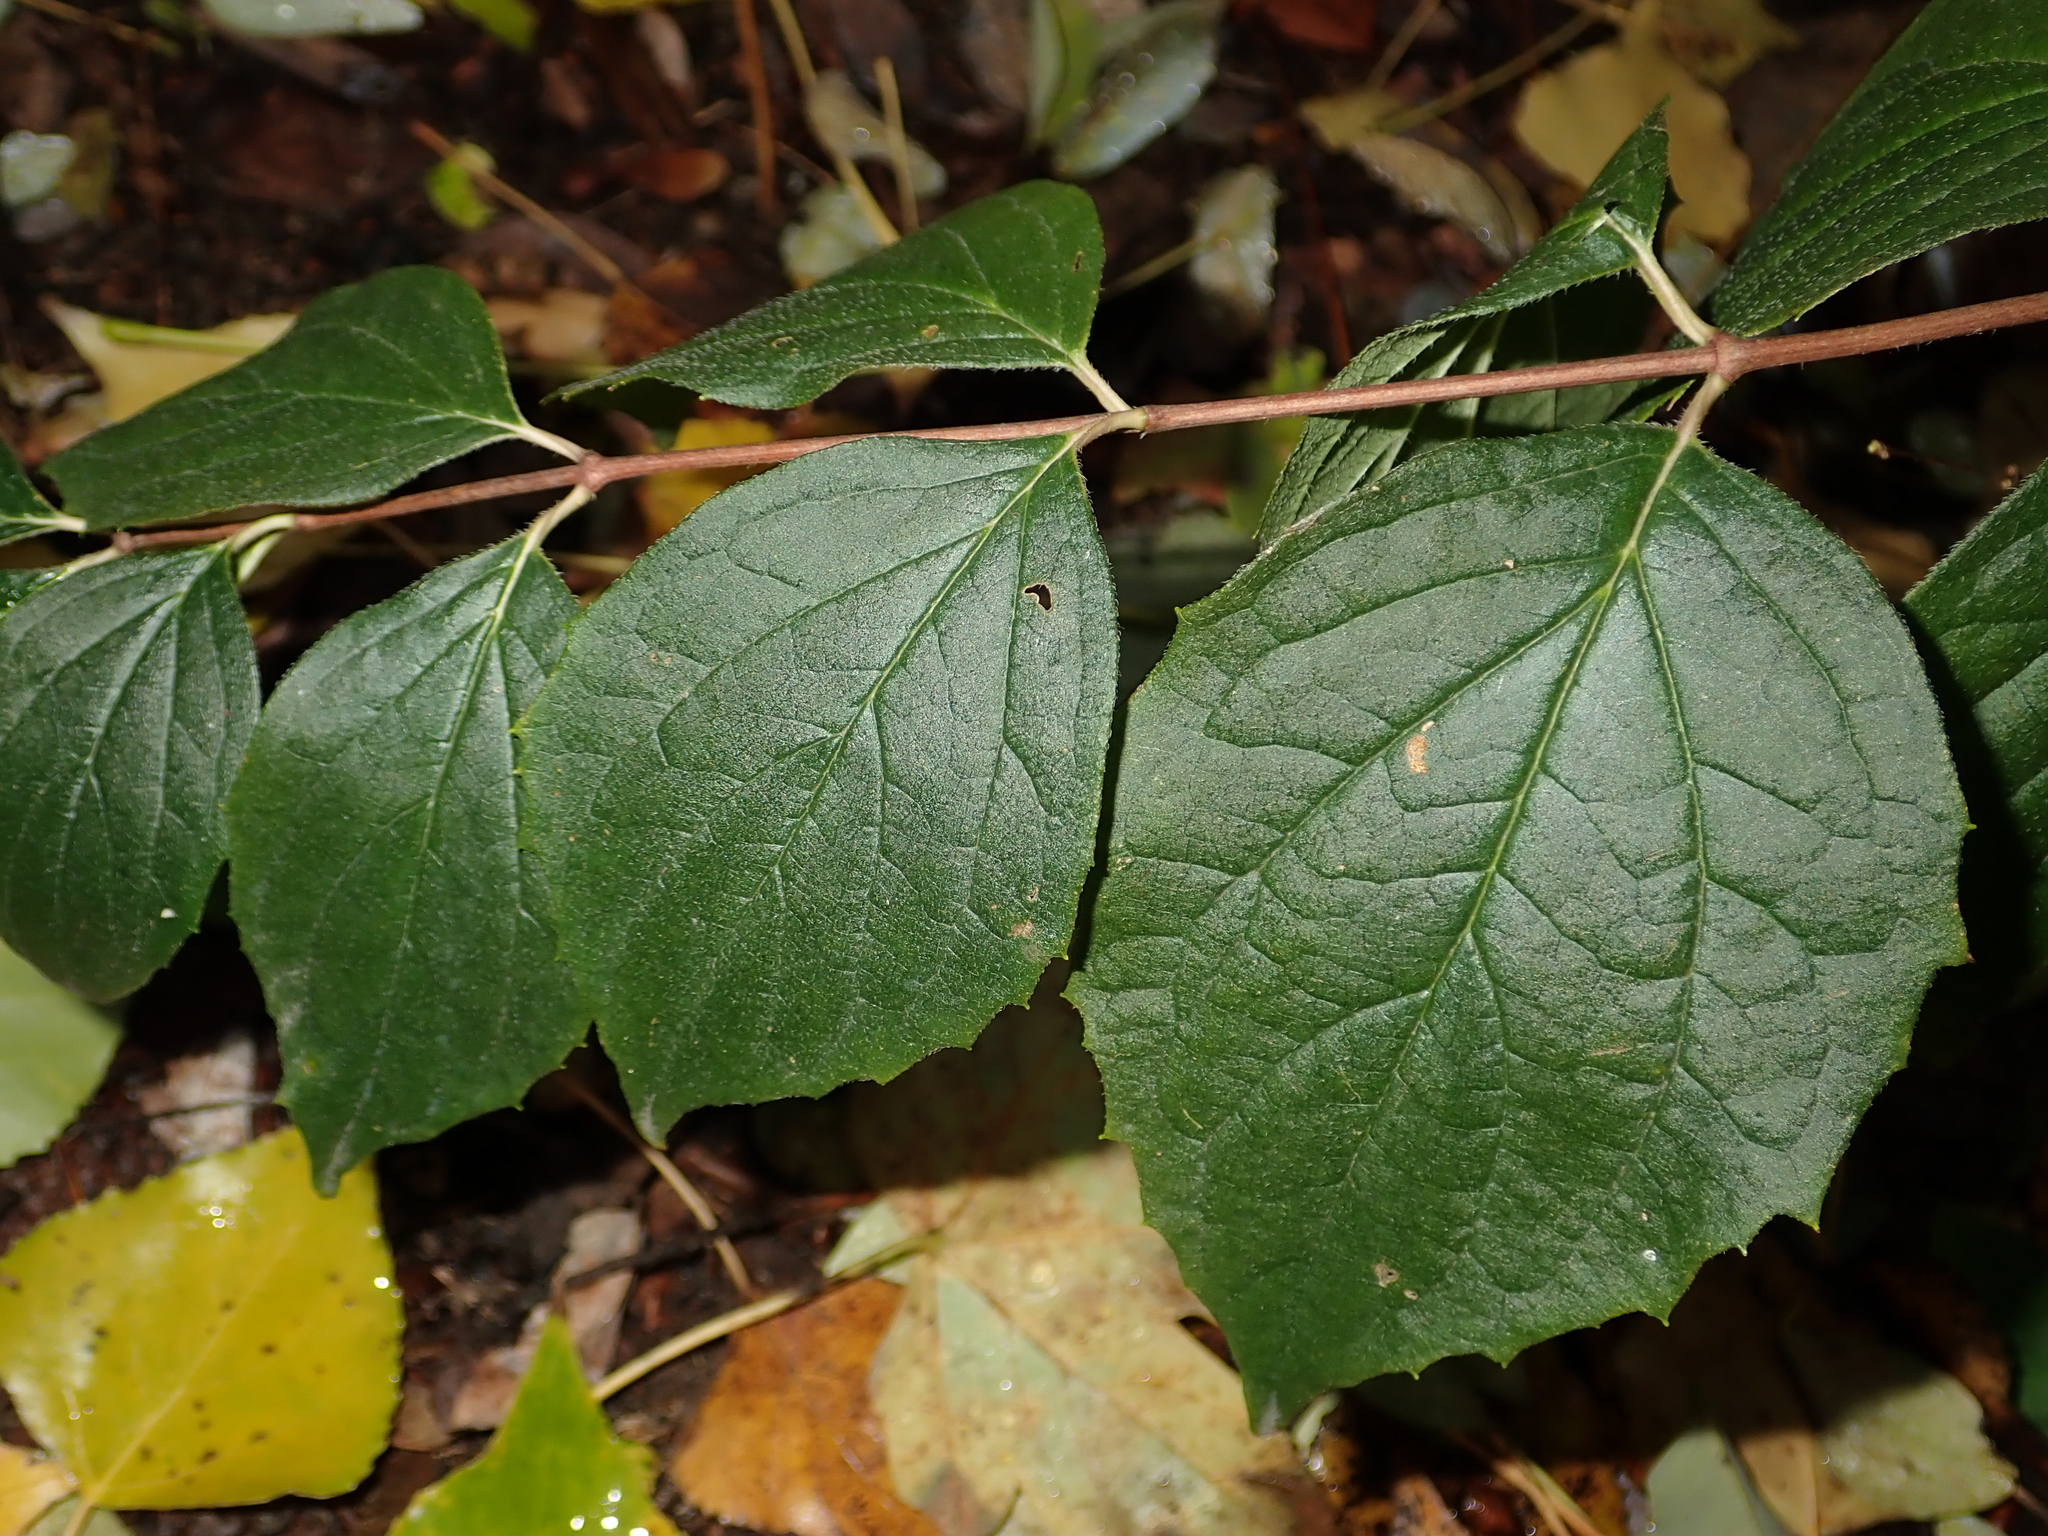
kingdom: Plantae
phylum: Tracheophyta
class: Magnoliopsida
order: Cornales
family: Hydrangeaceae
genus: Philadelphus
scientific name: Philadelphus coronarius
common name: Mock orange
